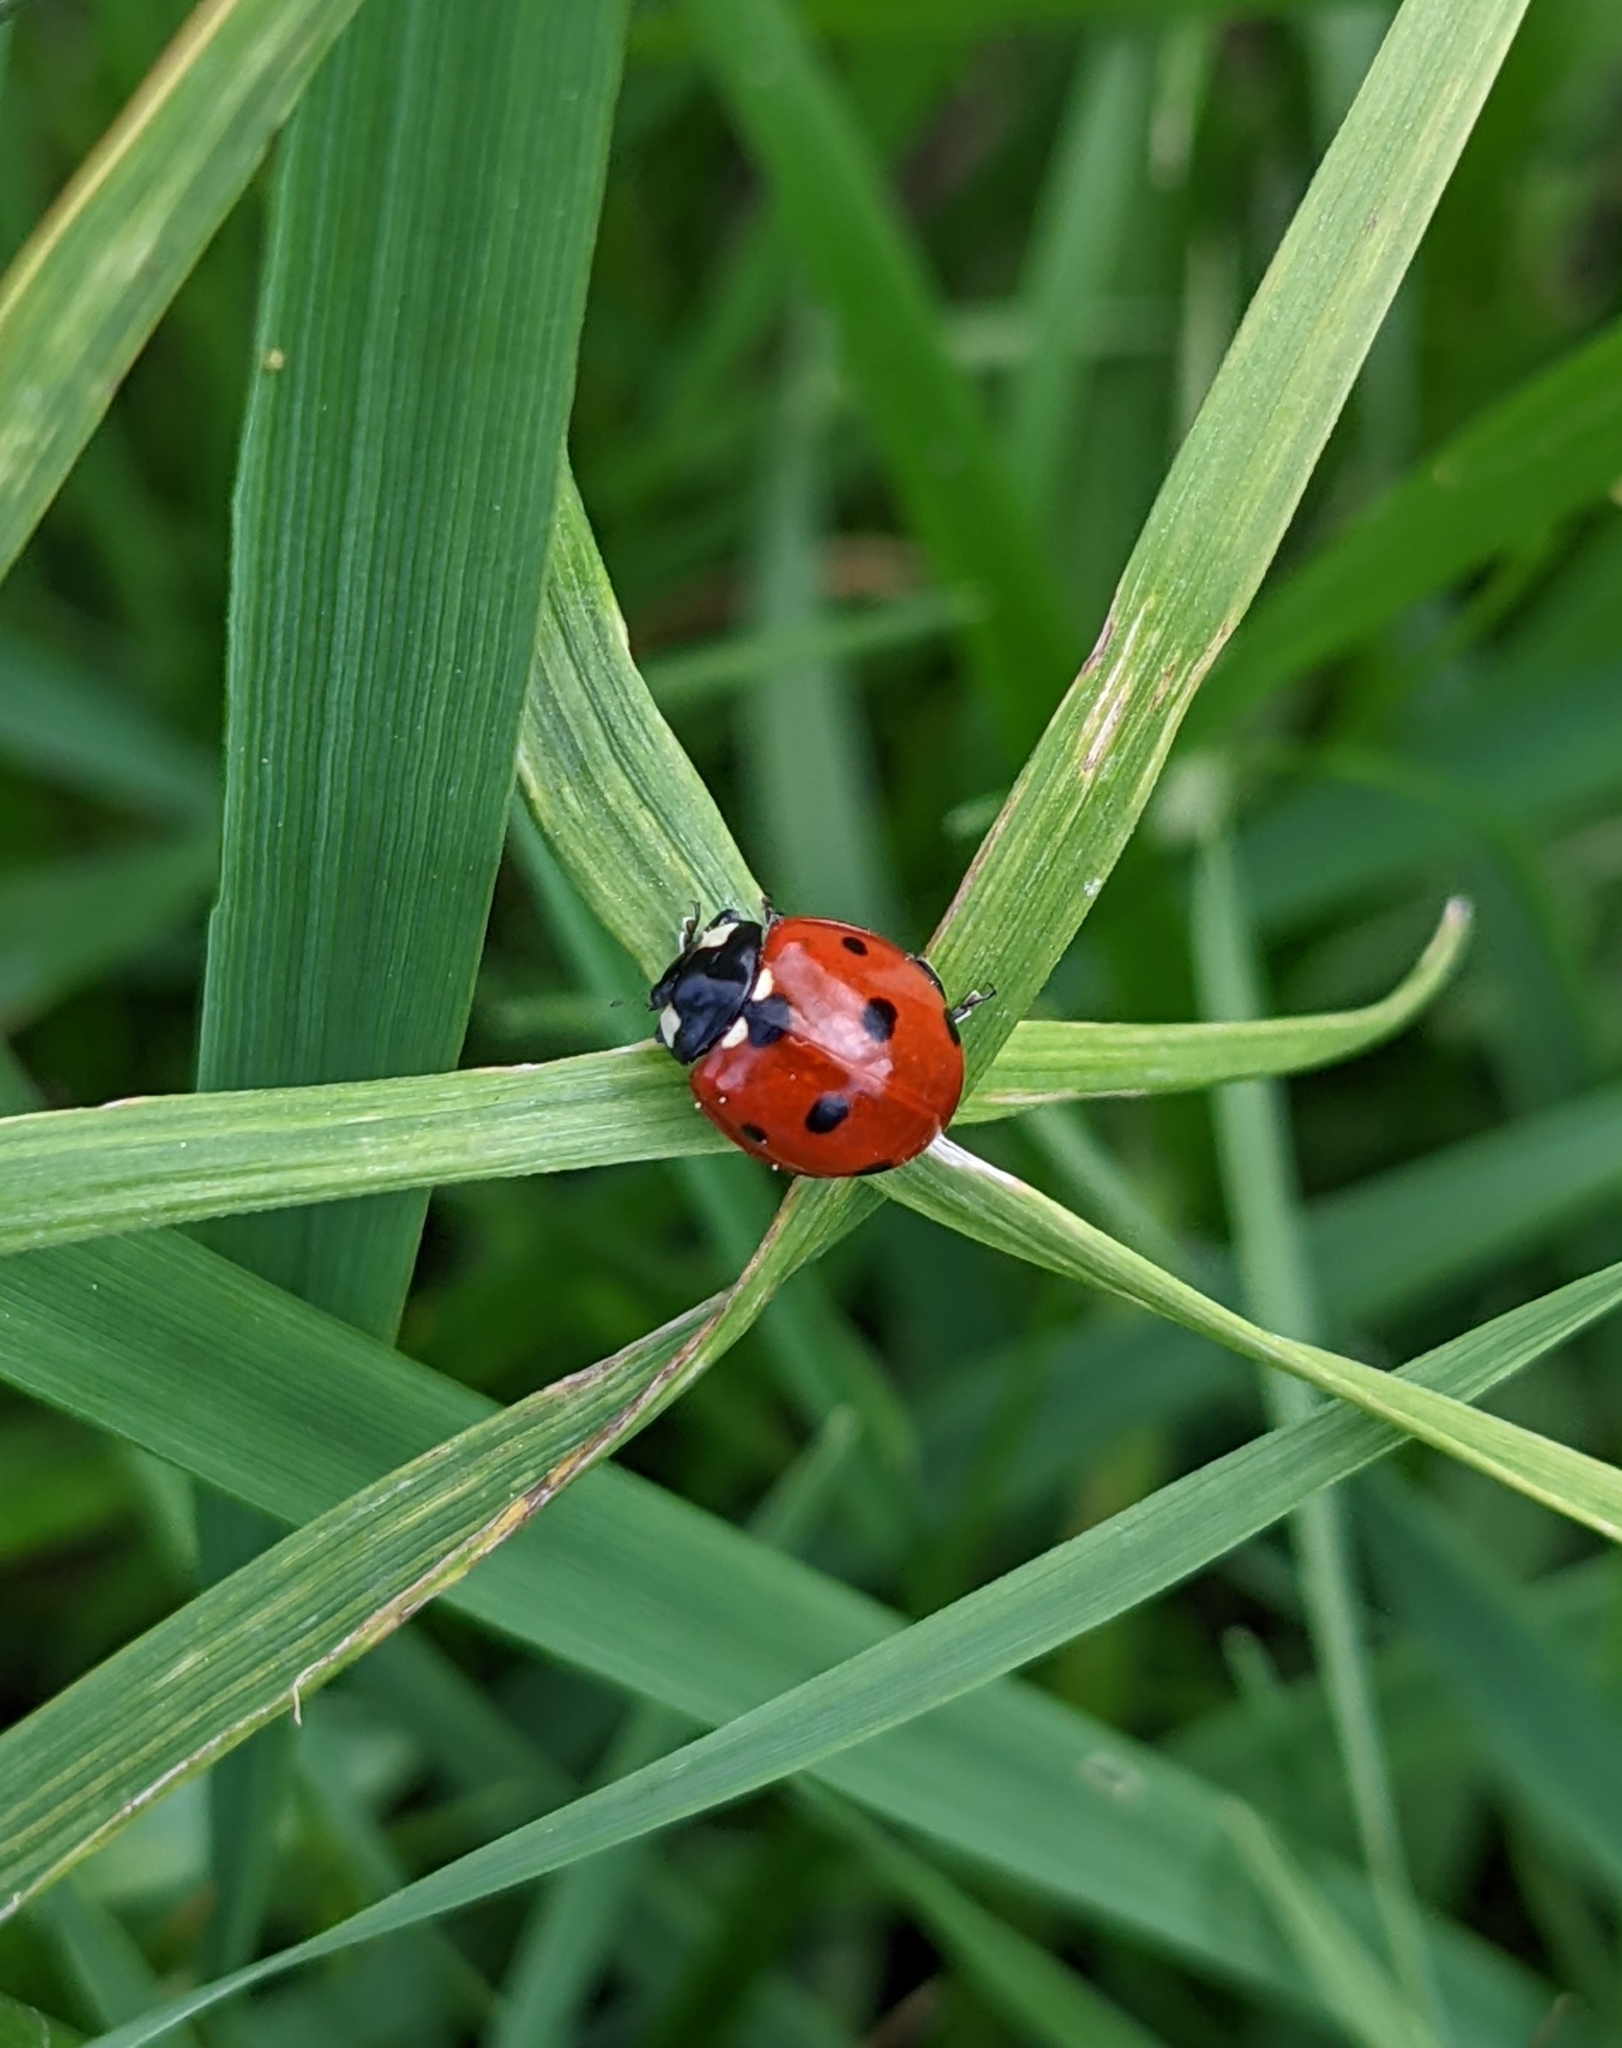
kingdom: Animalia
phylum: Arthropoda
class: Insecta
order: Coleoptera
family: Coccinellidae
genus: Coccinella
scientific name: Coccinella septempunctata
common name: Sevenspotted lady beetle
